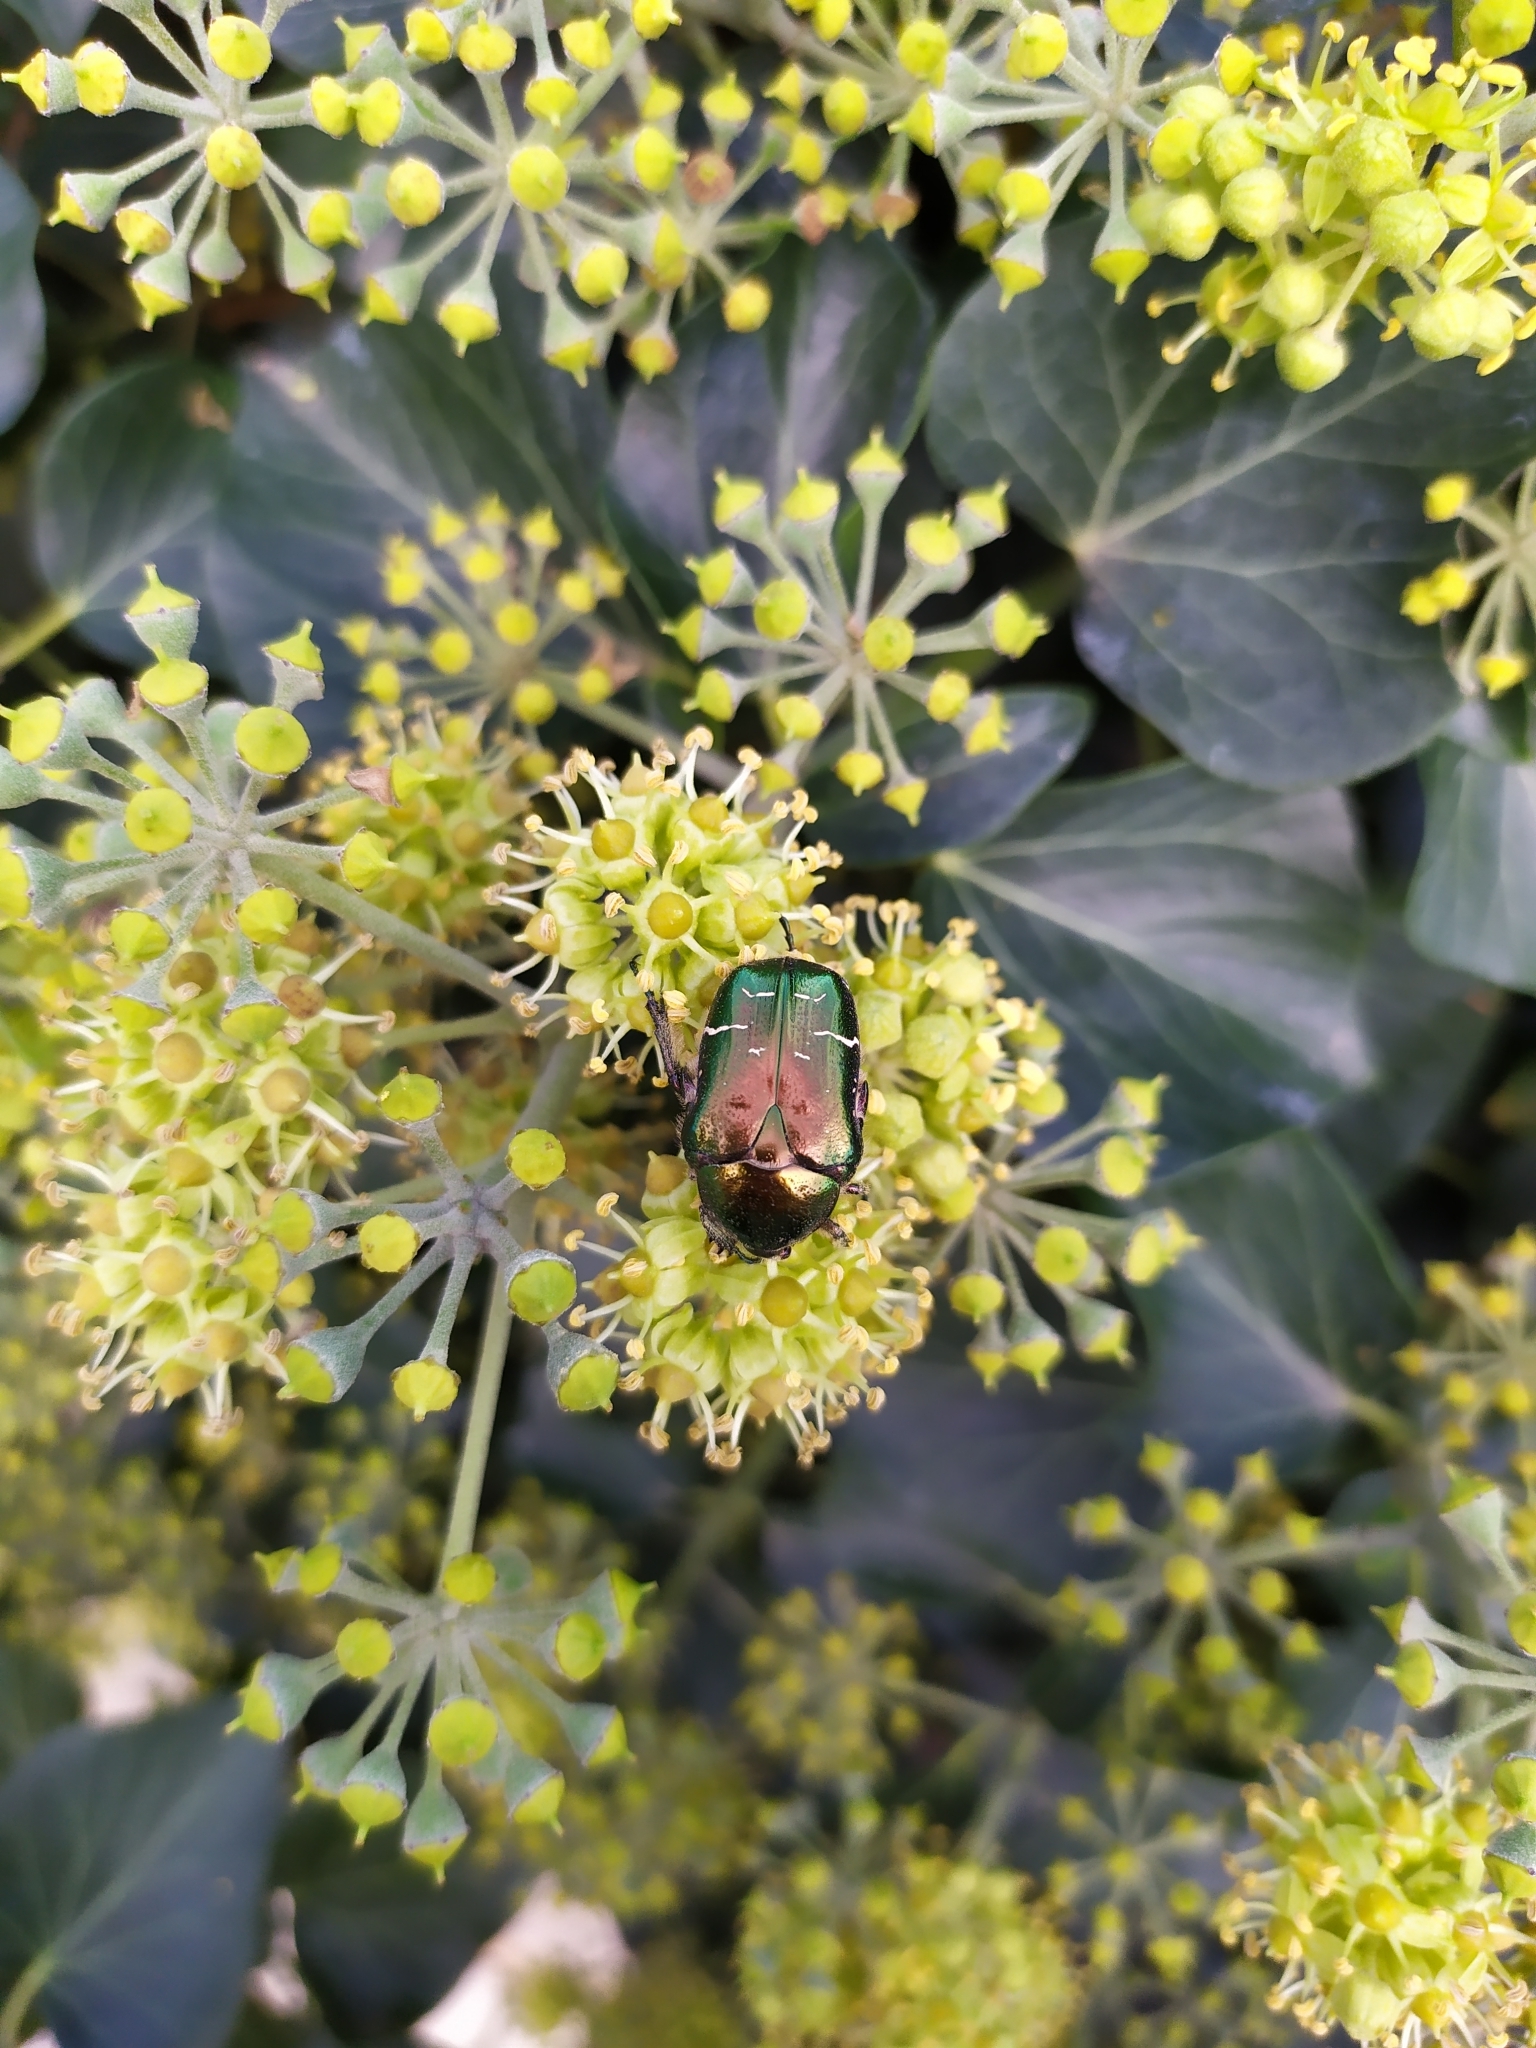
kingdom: Animalia
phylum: Arthropoda
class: Insecta
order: Coleoptera
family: Scarabaeidae
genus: Cetonia
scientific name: Cetonia aurata
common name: Rose chafer
